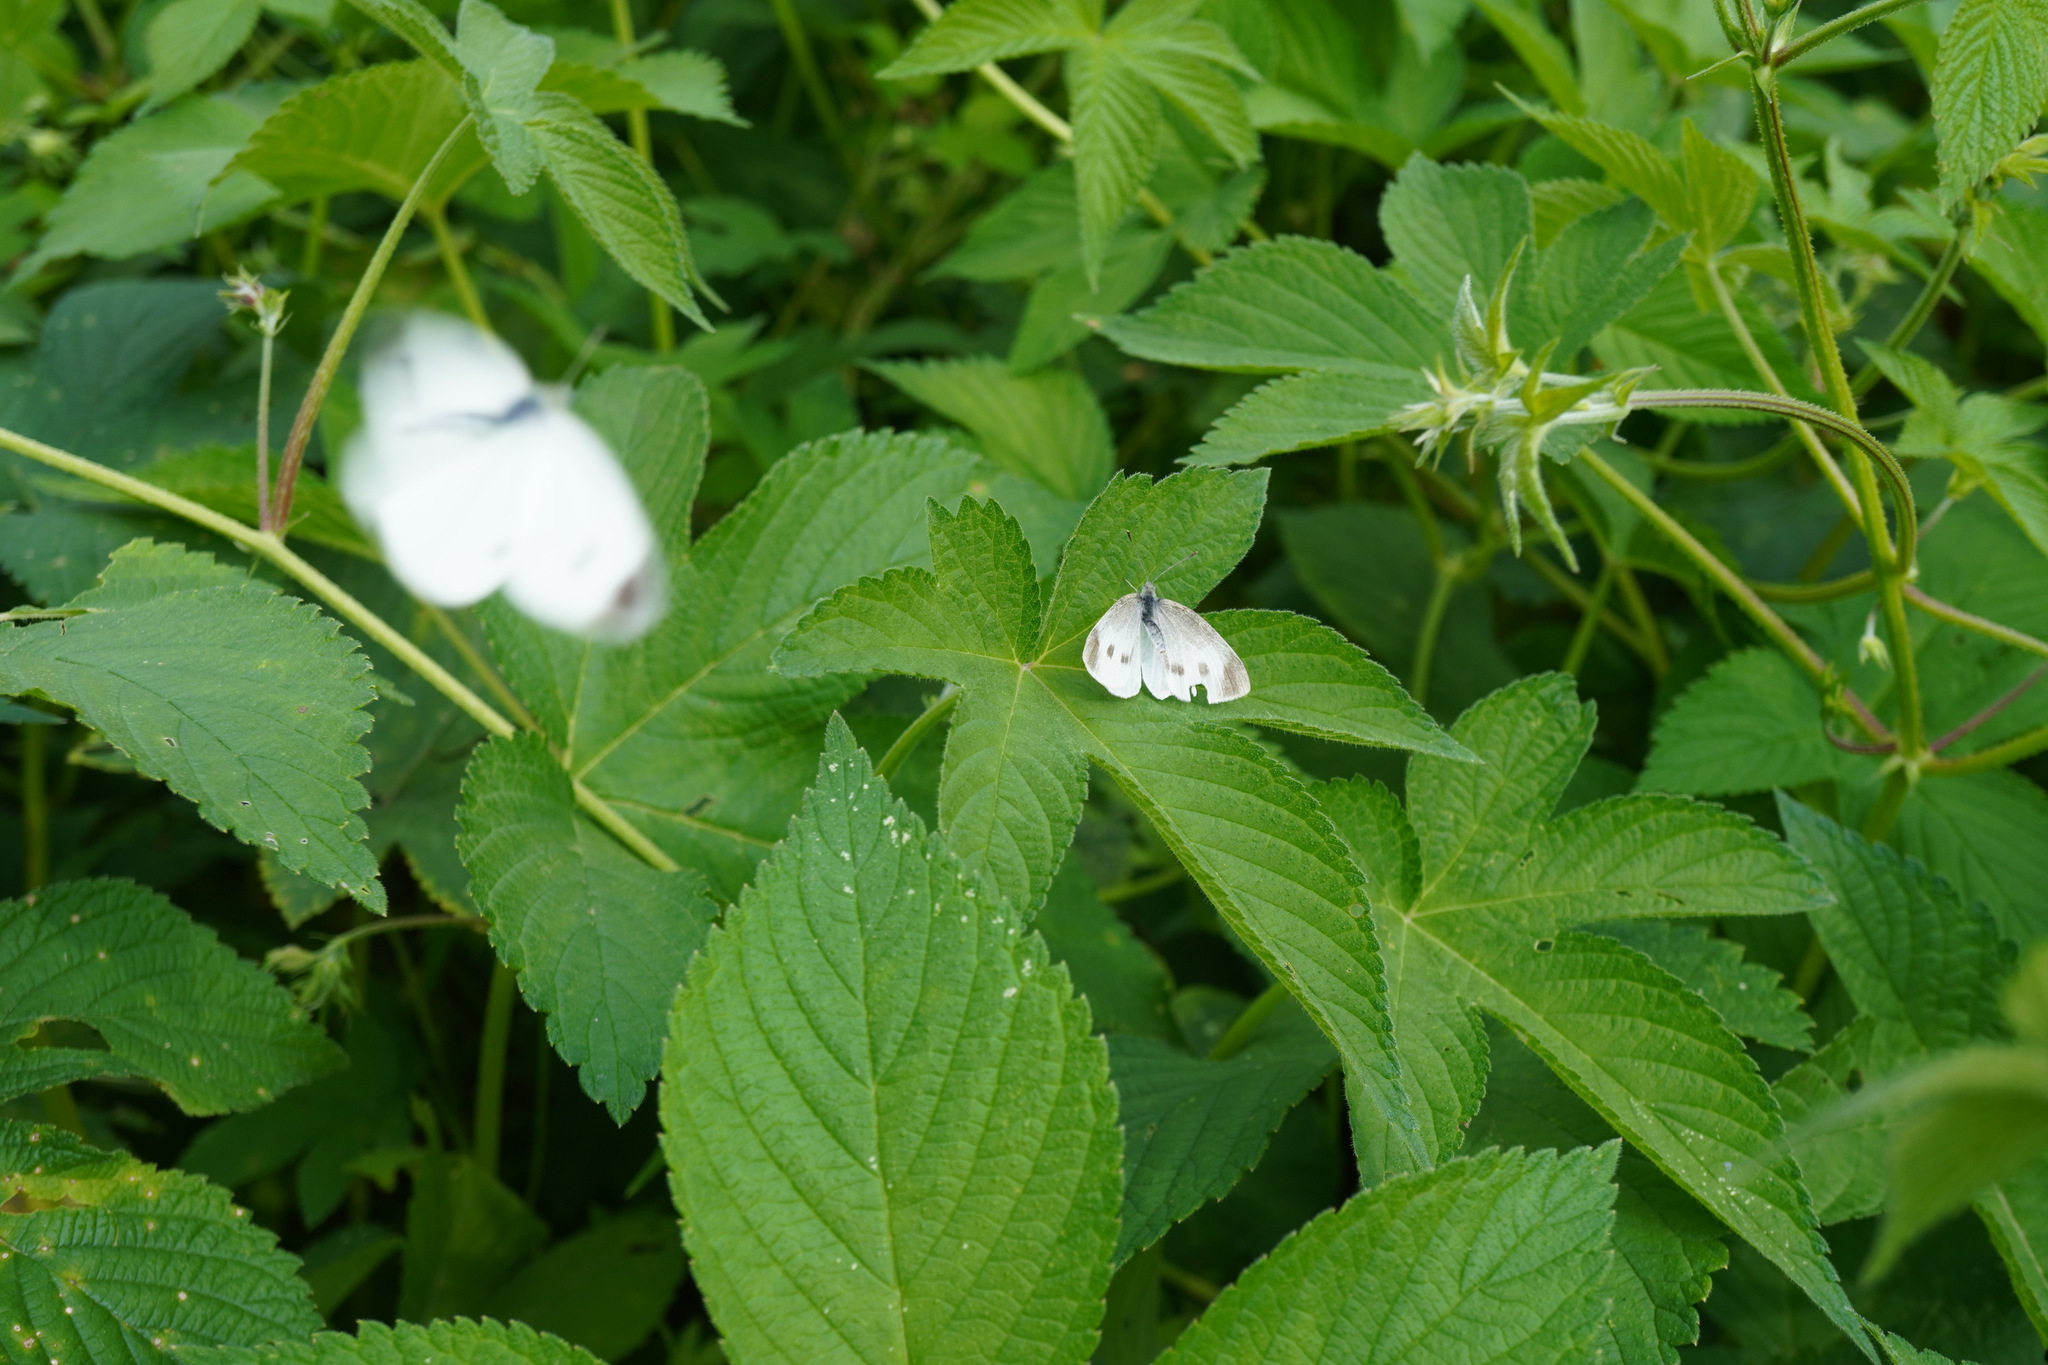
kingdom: Animalia
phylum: Arthropoda
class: Insecta
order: Lepidoptera
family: Pieridae
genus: Pieris
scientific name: Pieris rapae
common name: Small white
